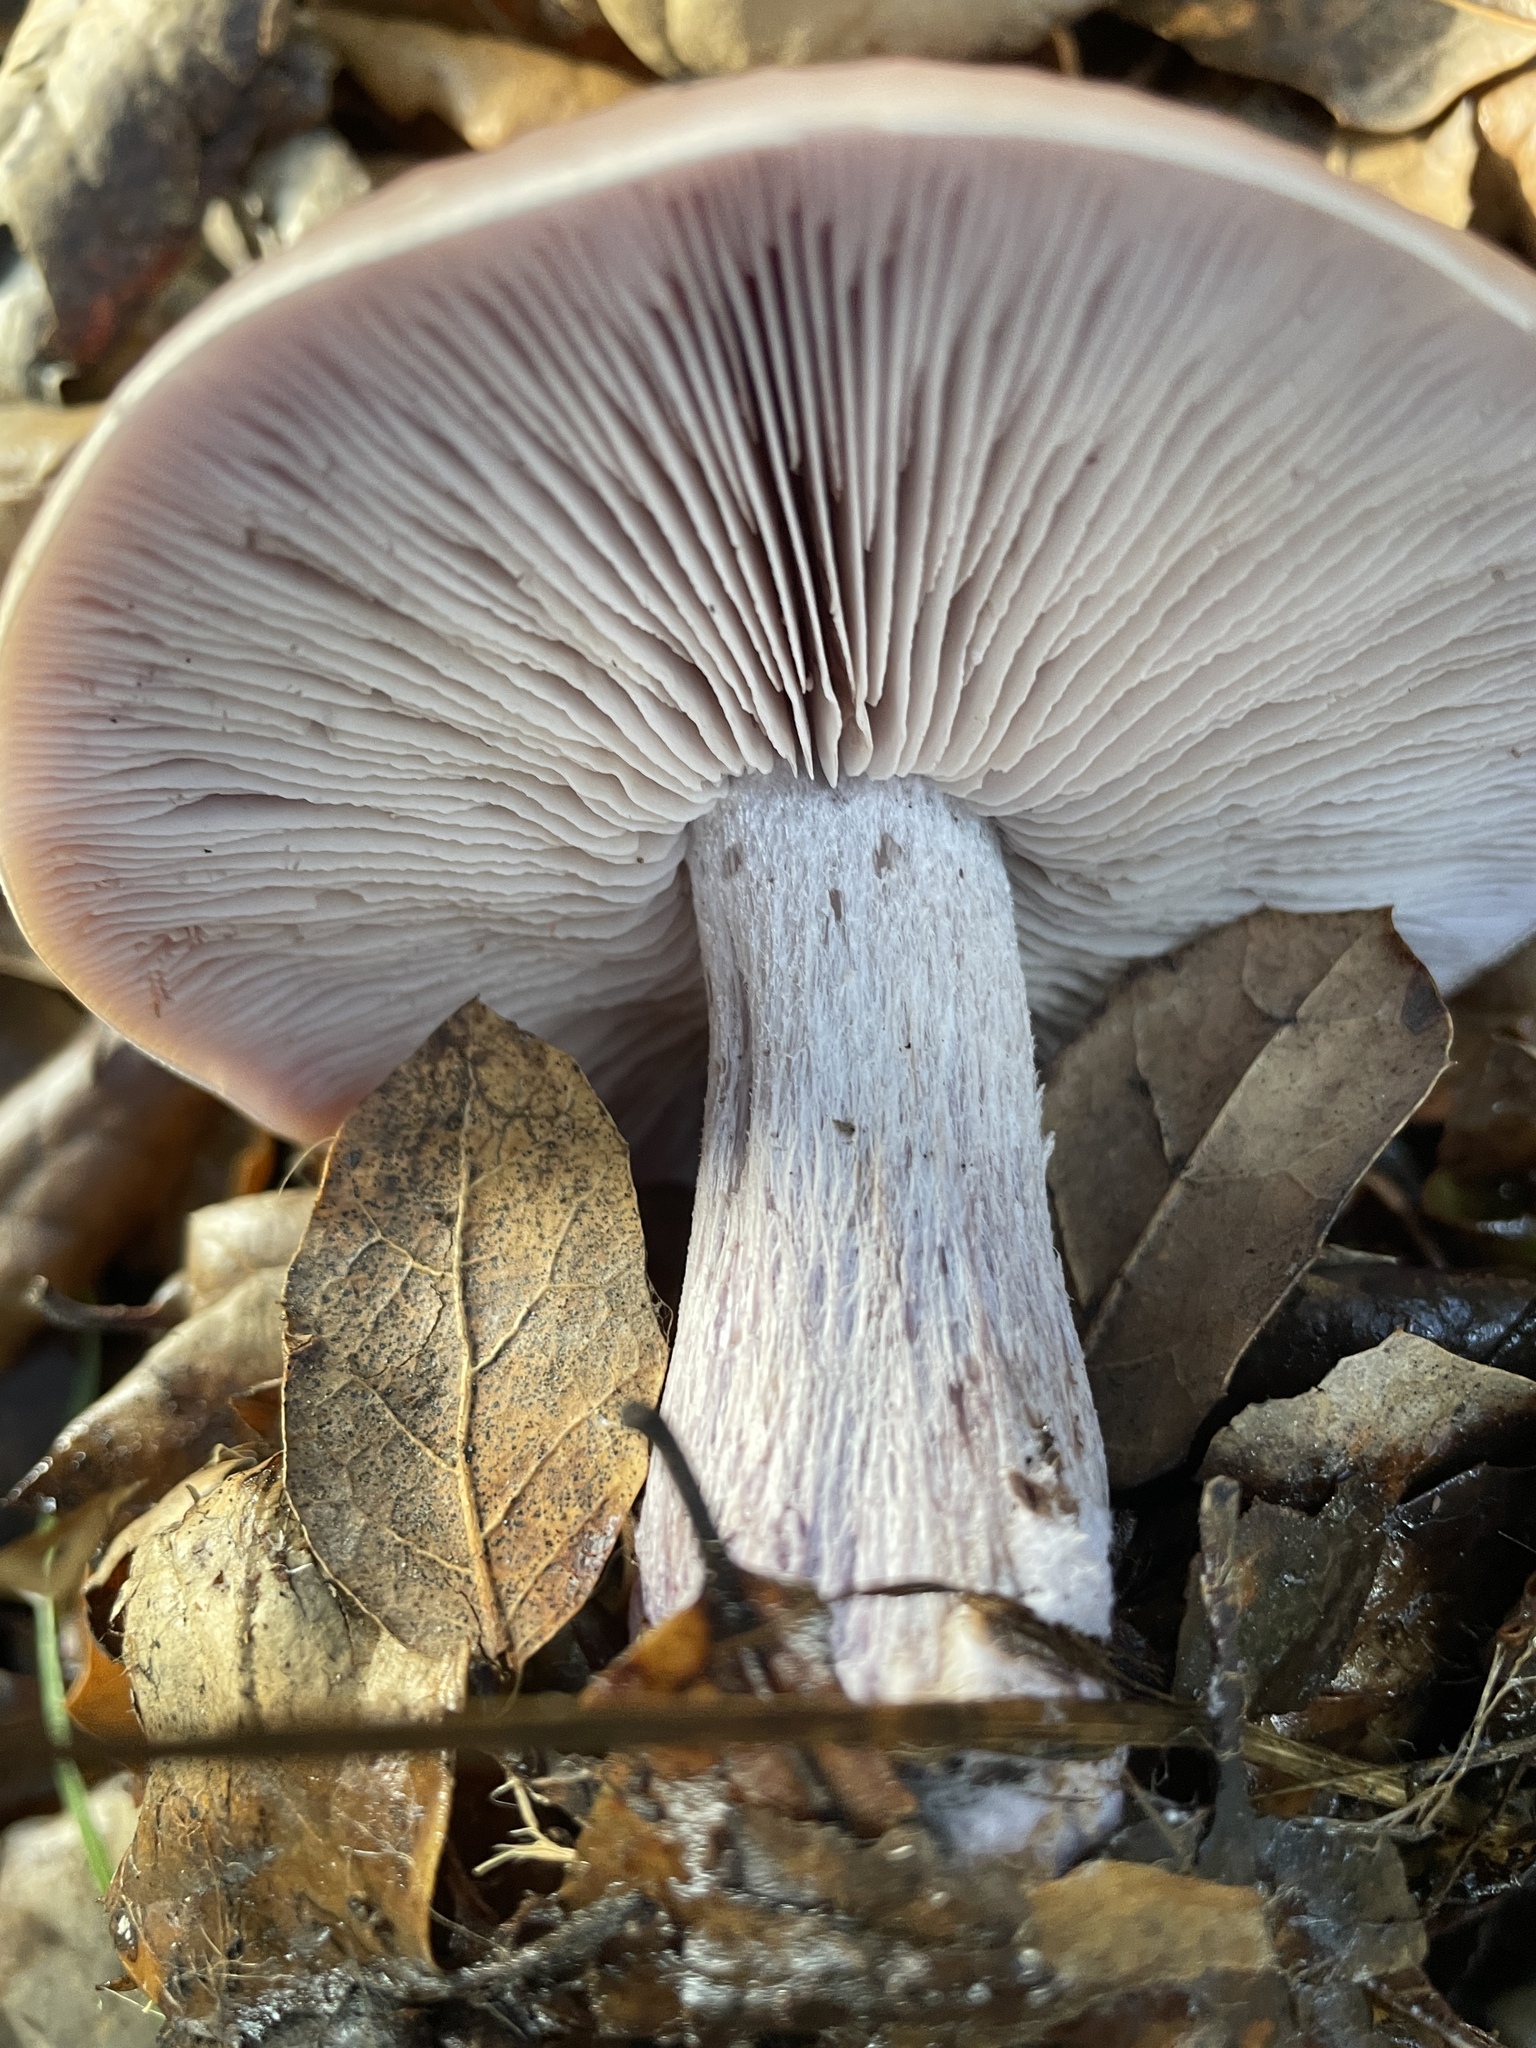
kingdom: Fungi
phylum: Basidiomycota
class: Agaricomycetes
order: Agaricales
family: Tricholomataceae
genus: Collybia
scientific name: Collybia
